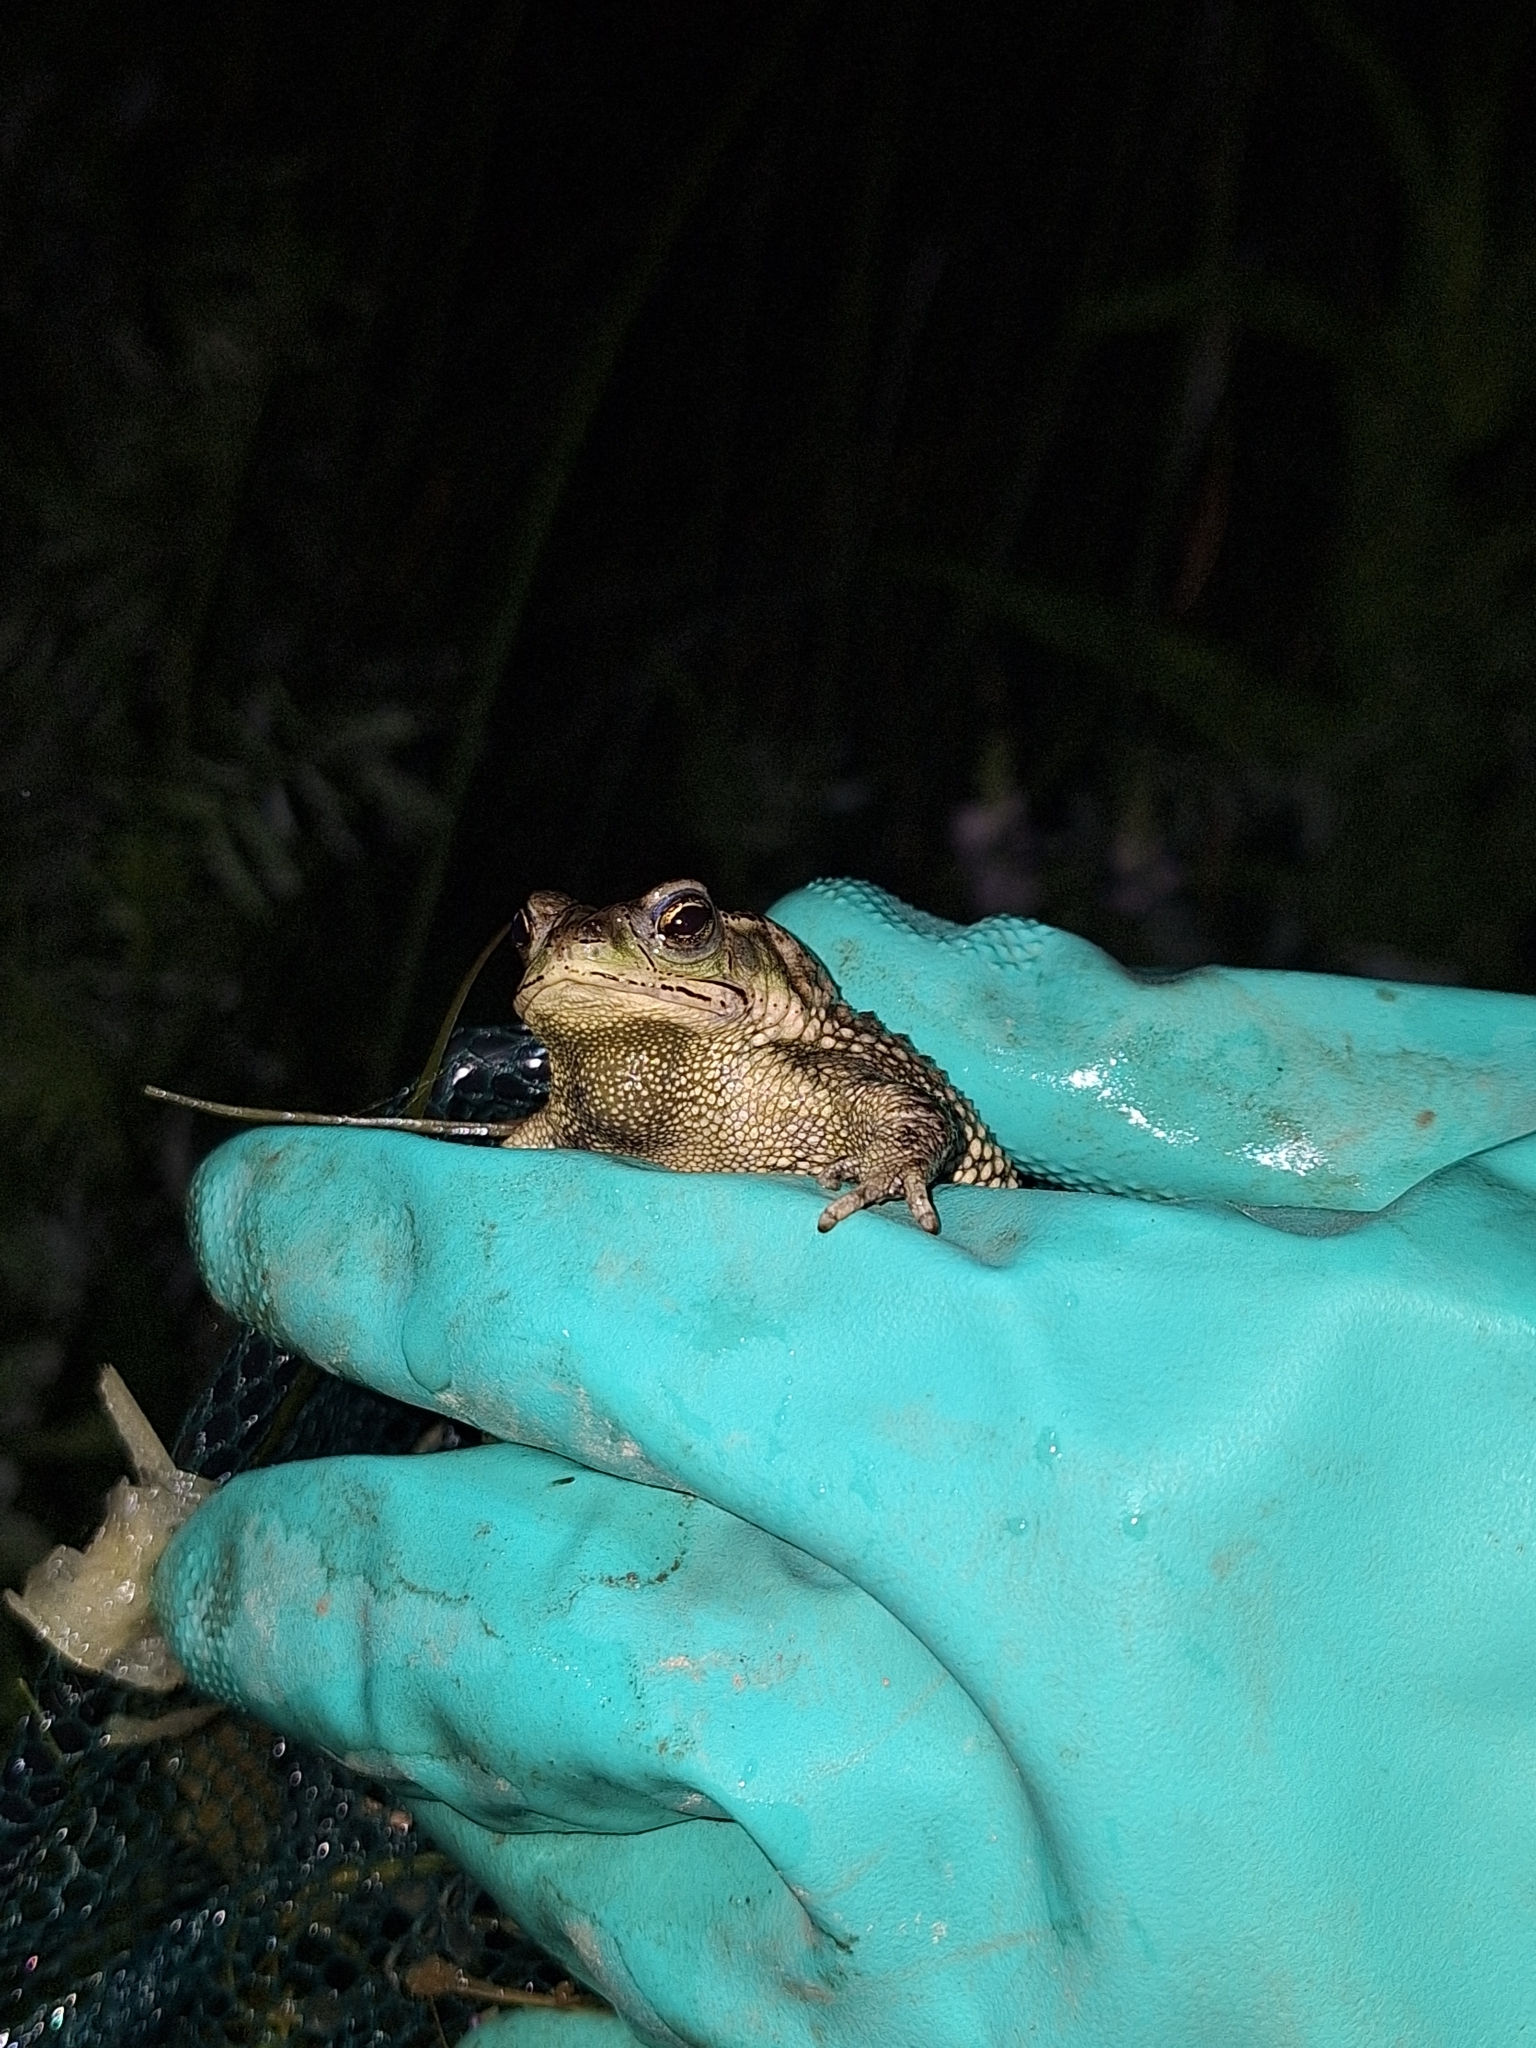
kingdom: Animalia
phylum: Chordata
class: Amphibia
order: Anura
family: Bufonidae
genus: Rhinella
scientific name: Rhinella dorbignyi
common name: D´orbigny’s toad
